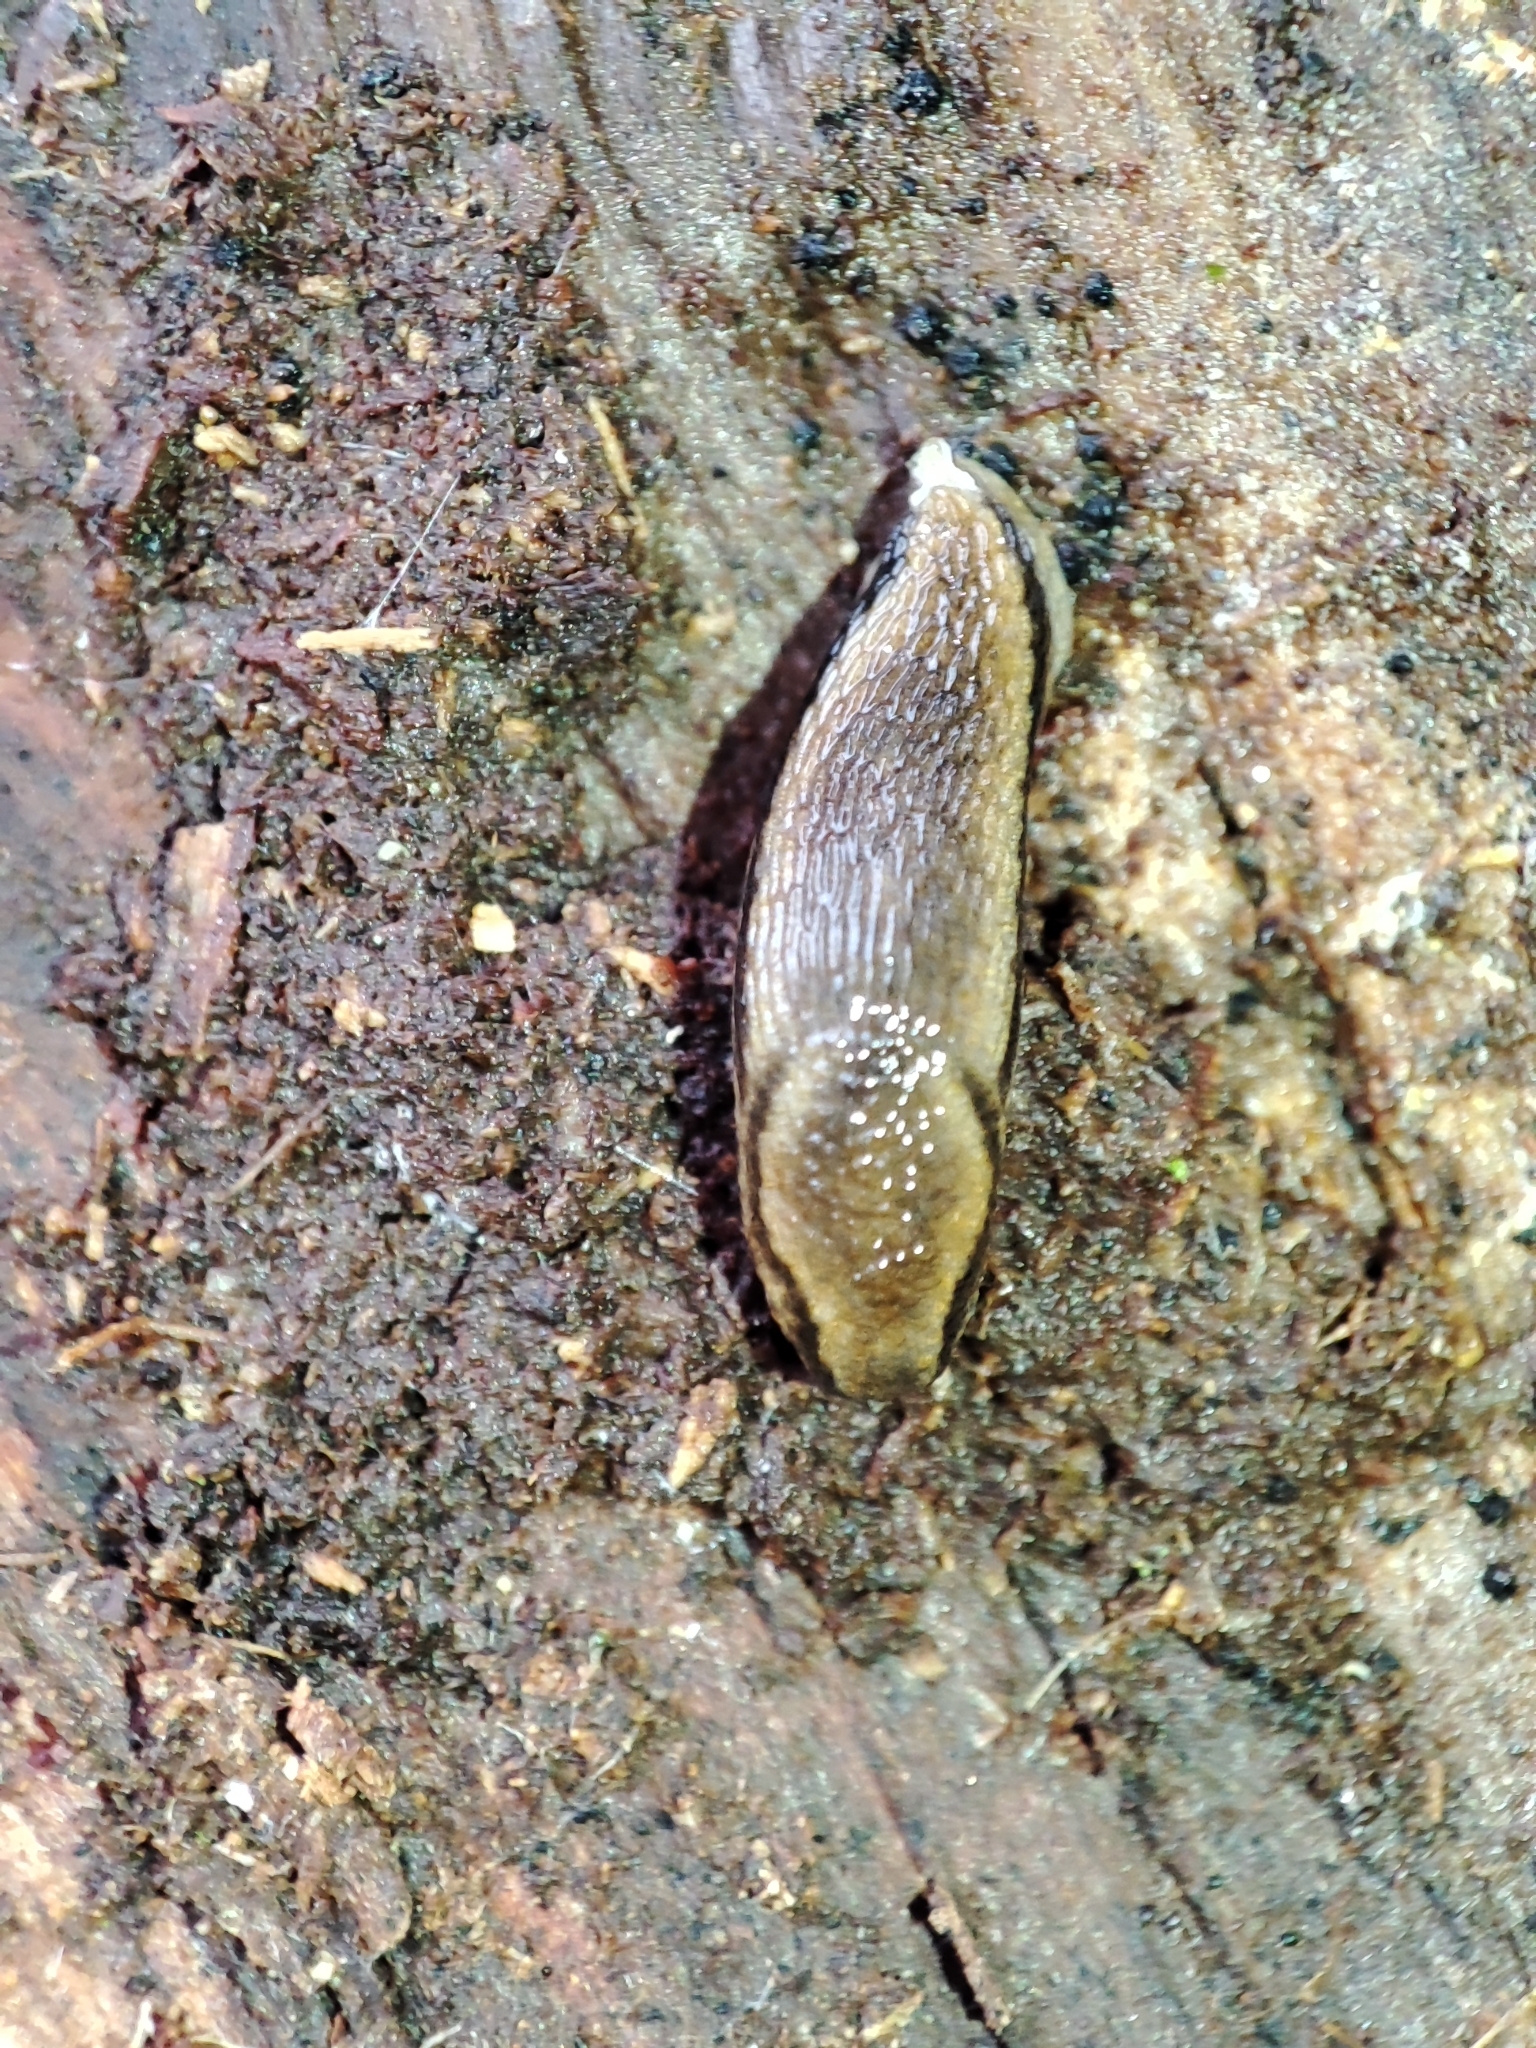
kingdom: Animalia
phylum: Mollusca
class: Gastropoda
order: Stylommatophora
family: Arionidae
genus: Arion
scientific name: Arion fuscus
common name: Northern dusky slug
